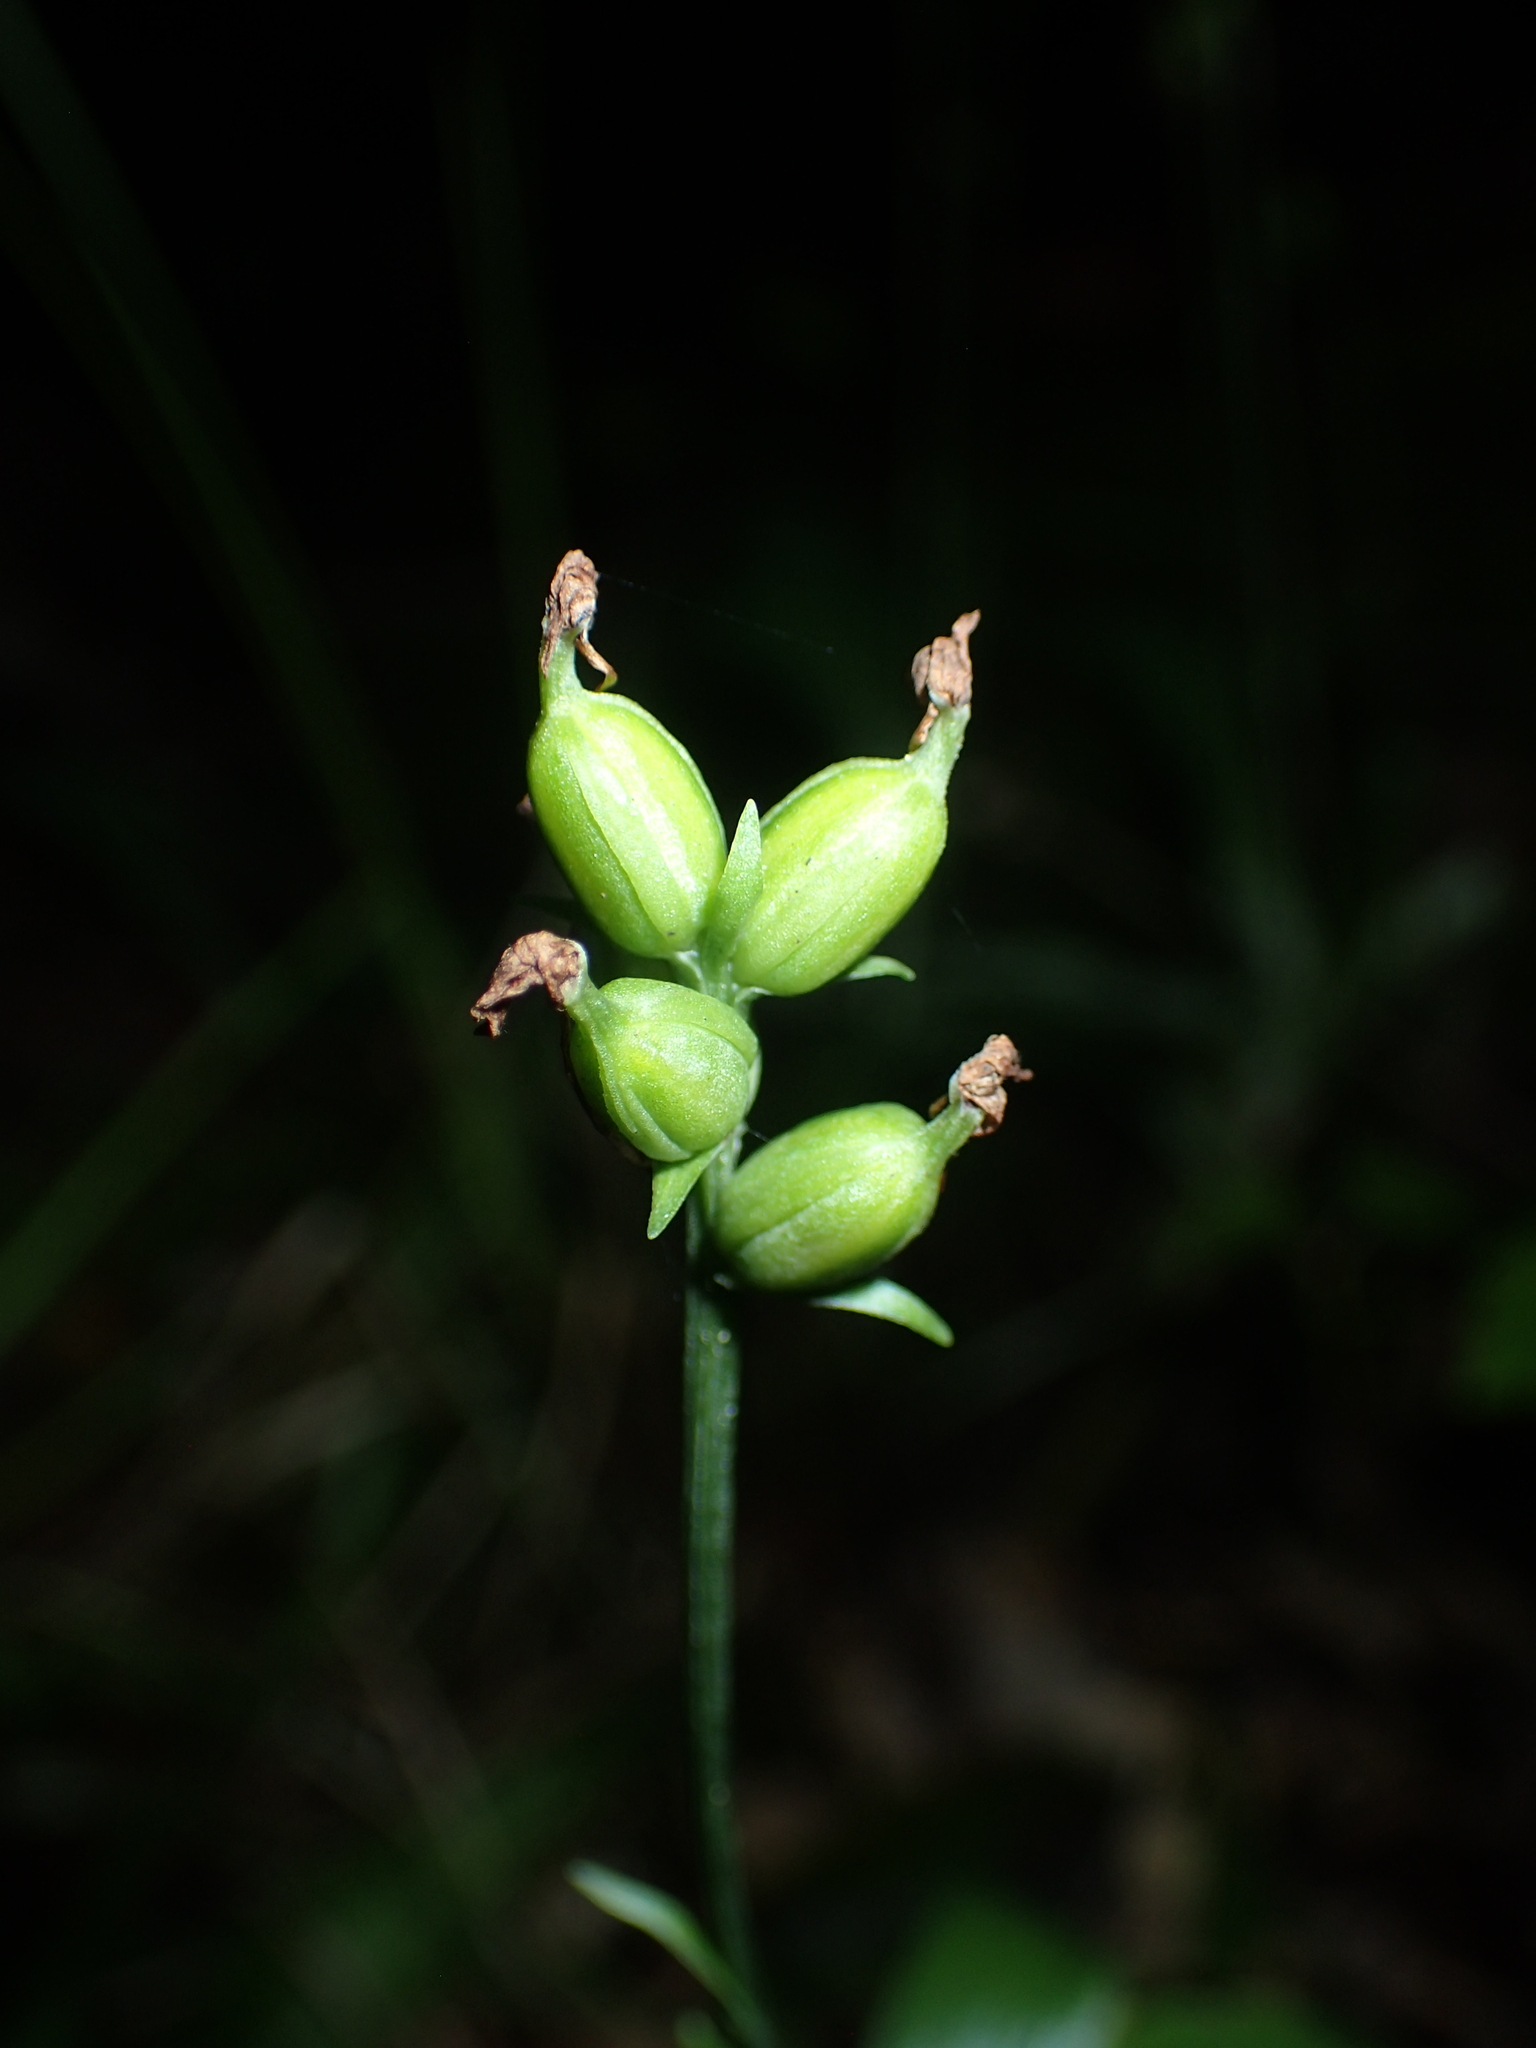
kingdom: Plantae
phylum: Tracheophyta
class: Liliopsida
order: Asparagales
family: Orchidaceae
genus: Platanthera
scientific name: Platanthera clavellata
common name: Club-spur orchid
